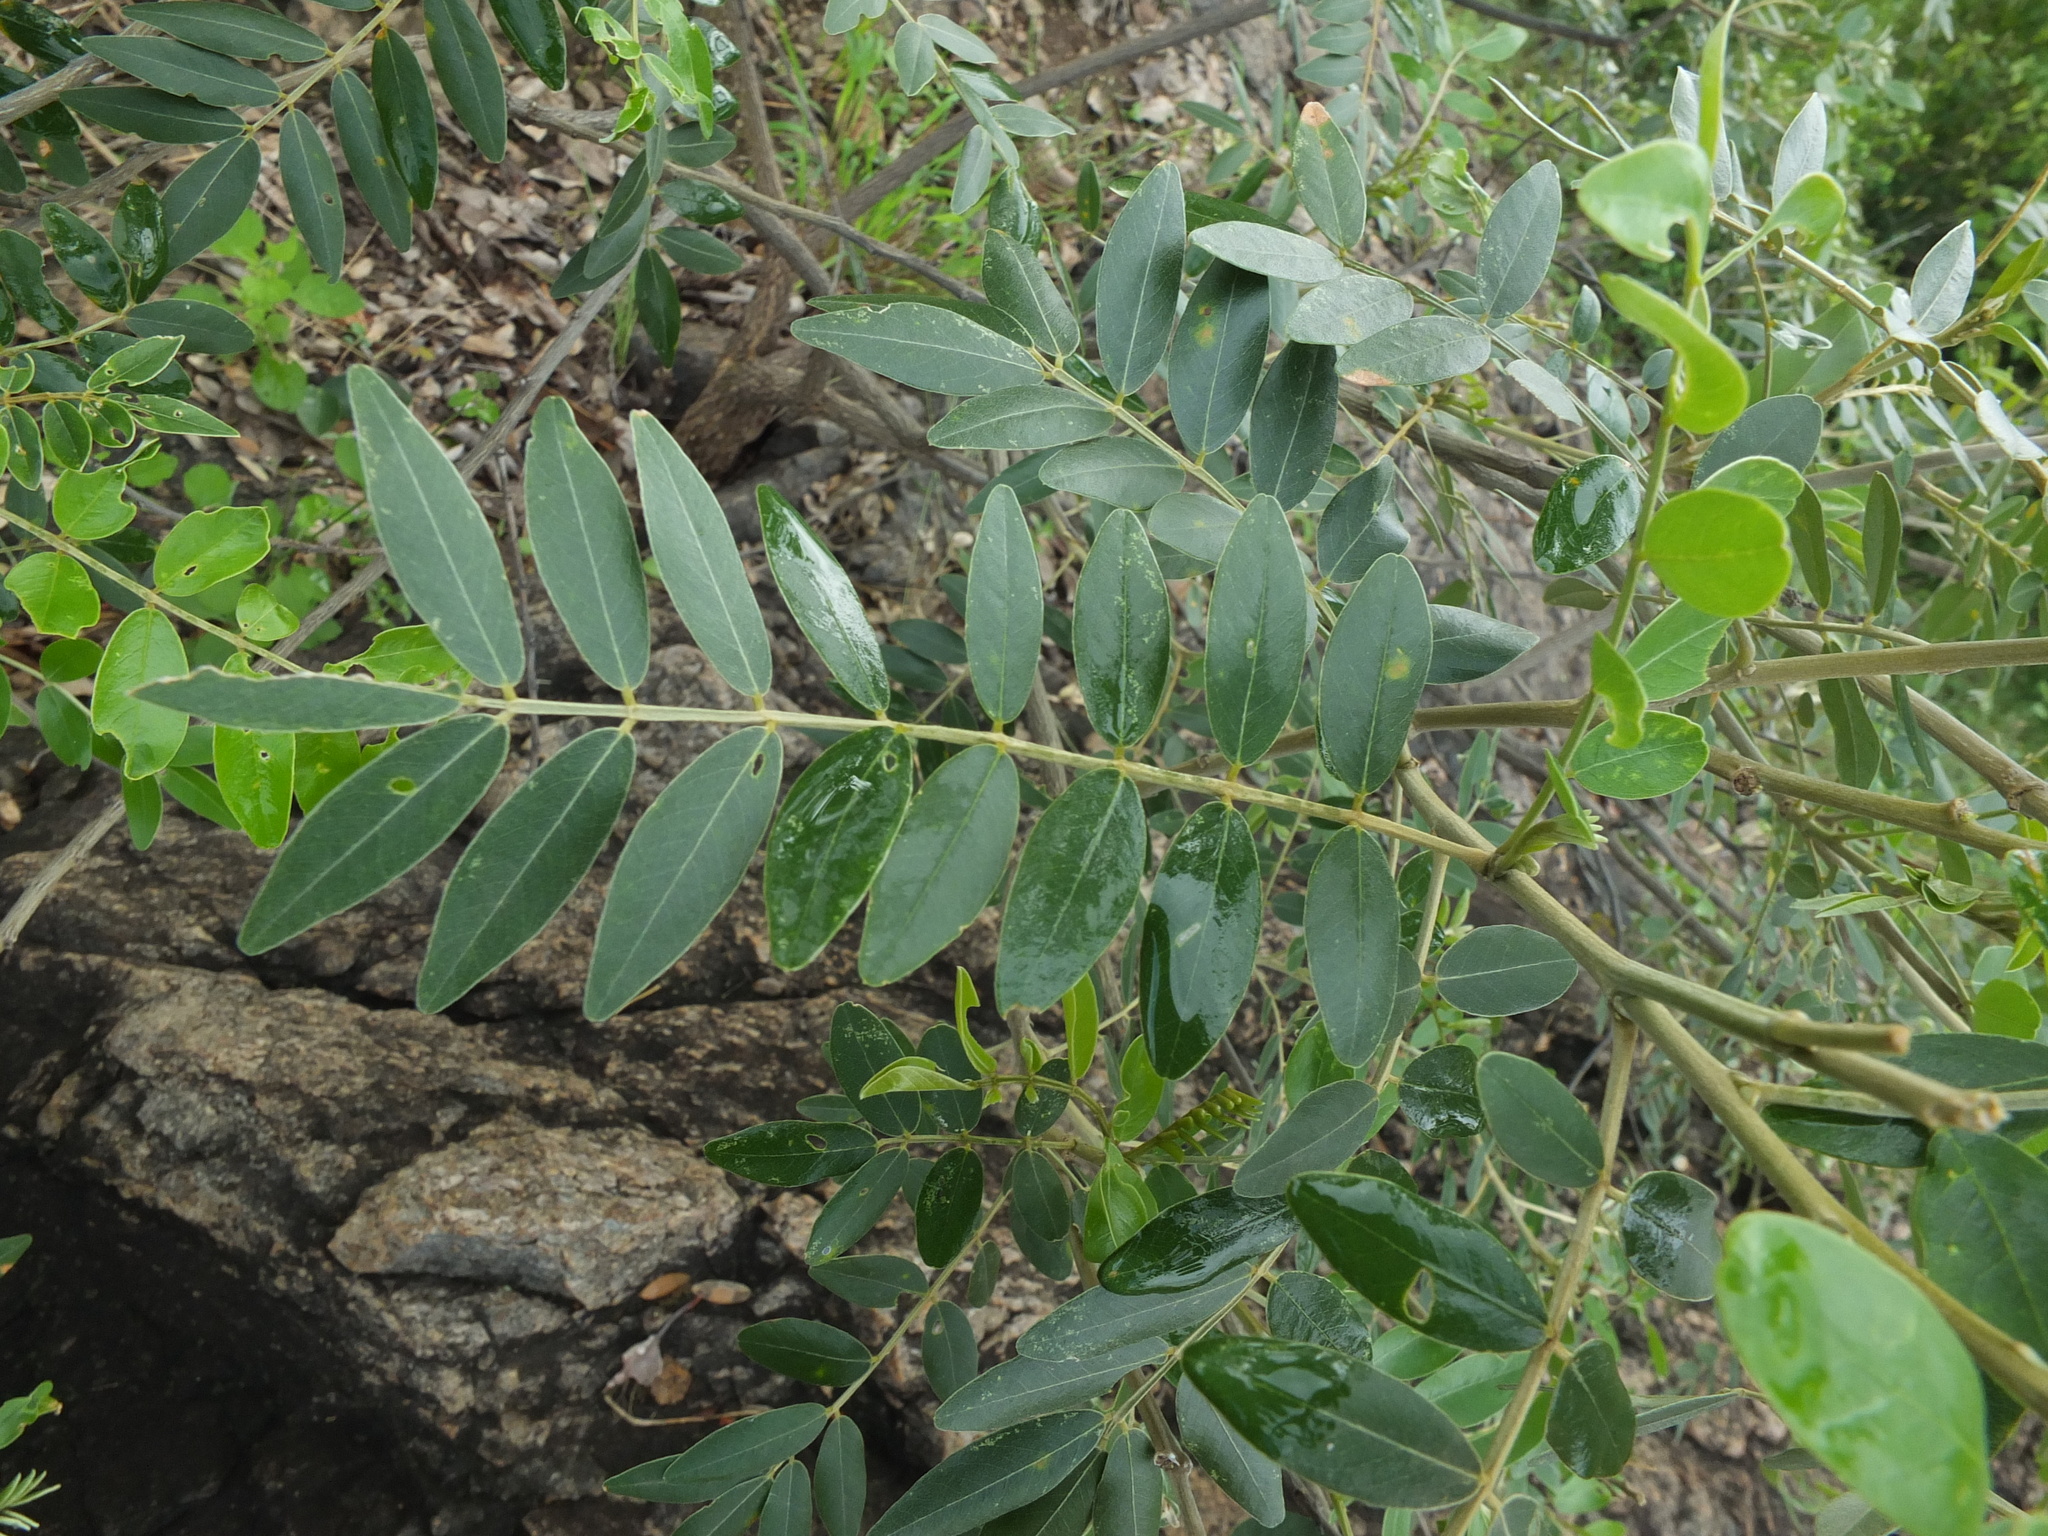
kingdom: Plantae
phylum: Tracheophyta
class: Magnoliopsida
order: Fabales
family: Fabaceae
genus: Mundulea
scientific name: Mundulea sericea
